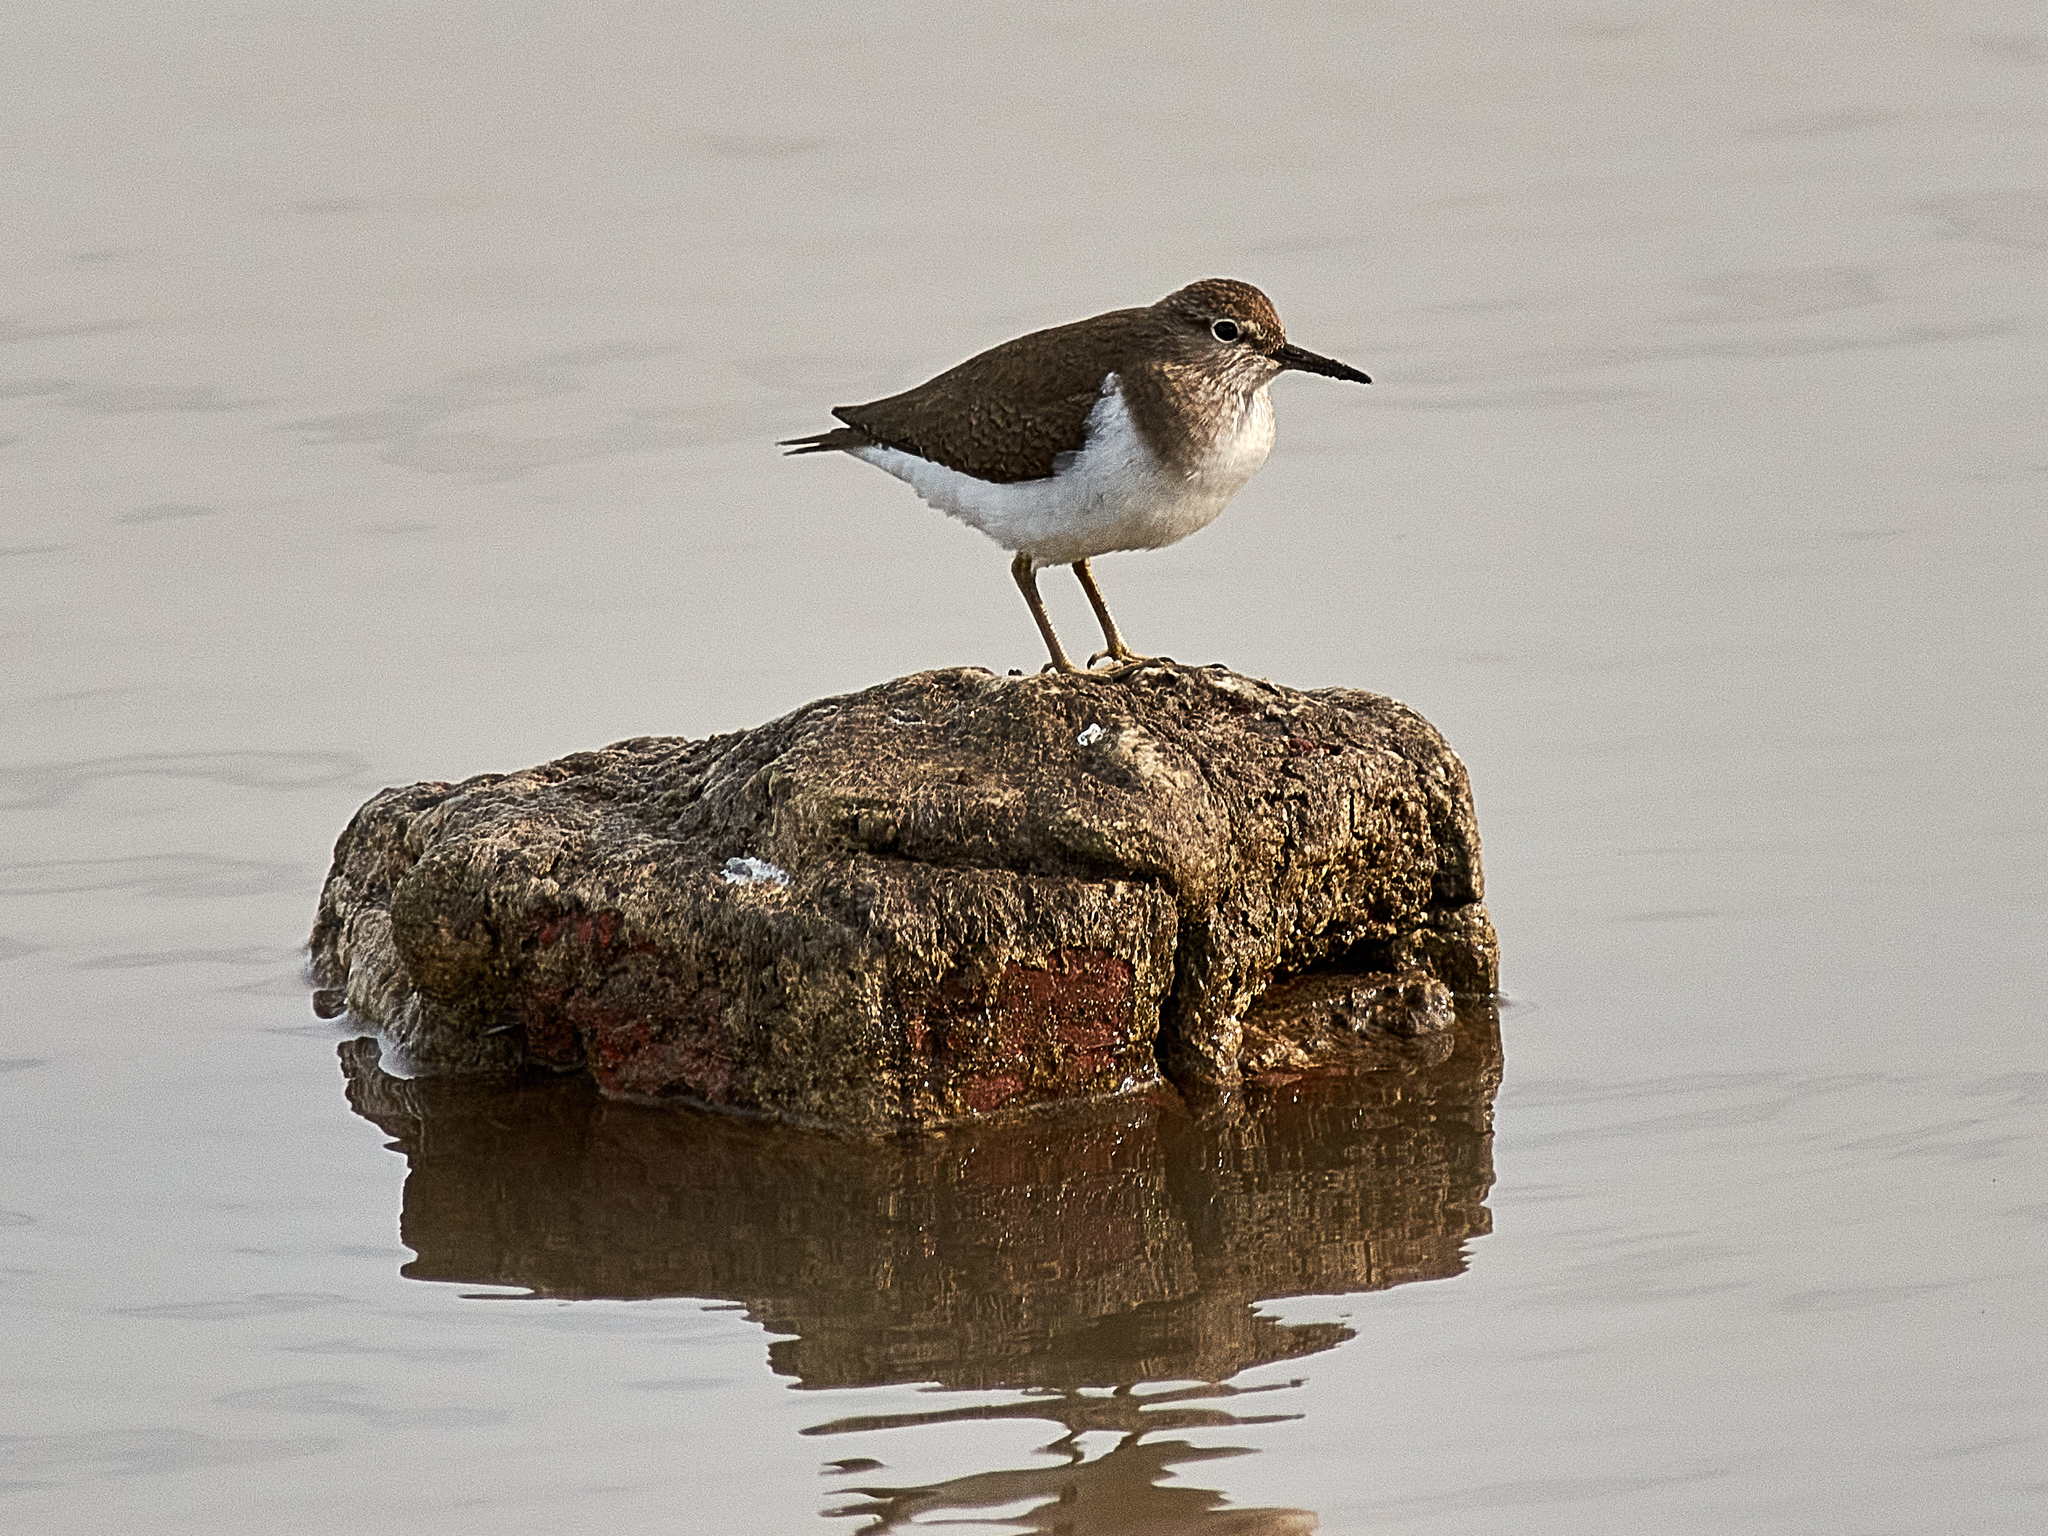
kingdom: Animalia
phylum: Chordata
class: Aves
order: Charadriiformes
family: Scolopacidae
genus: Actitis
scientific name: Actitis hypoleucos
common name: Common sandpiper
